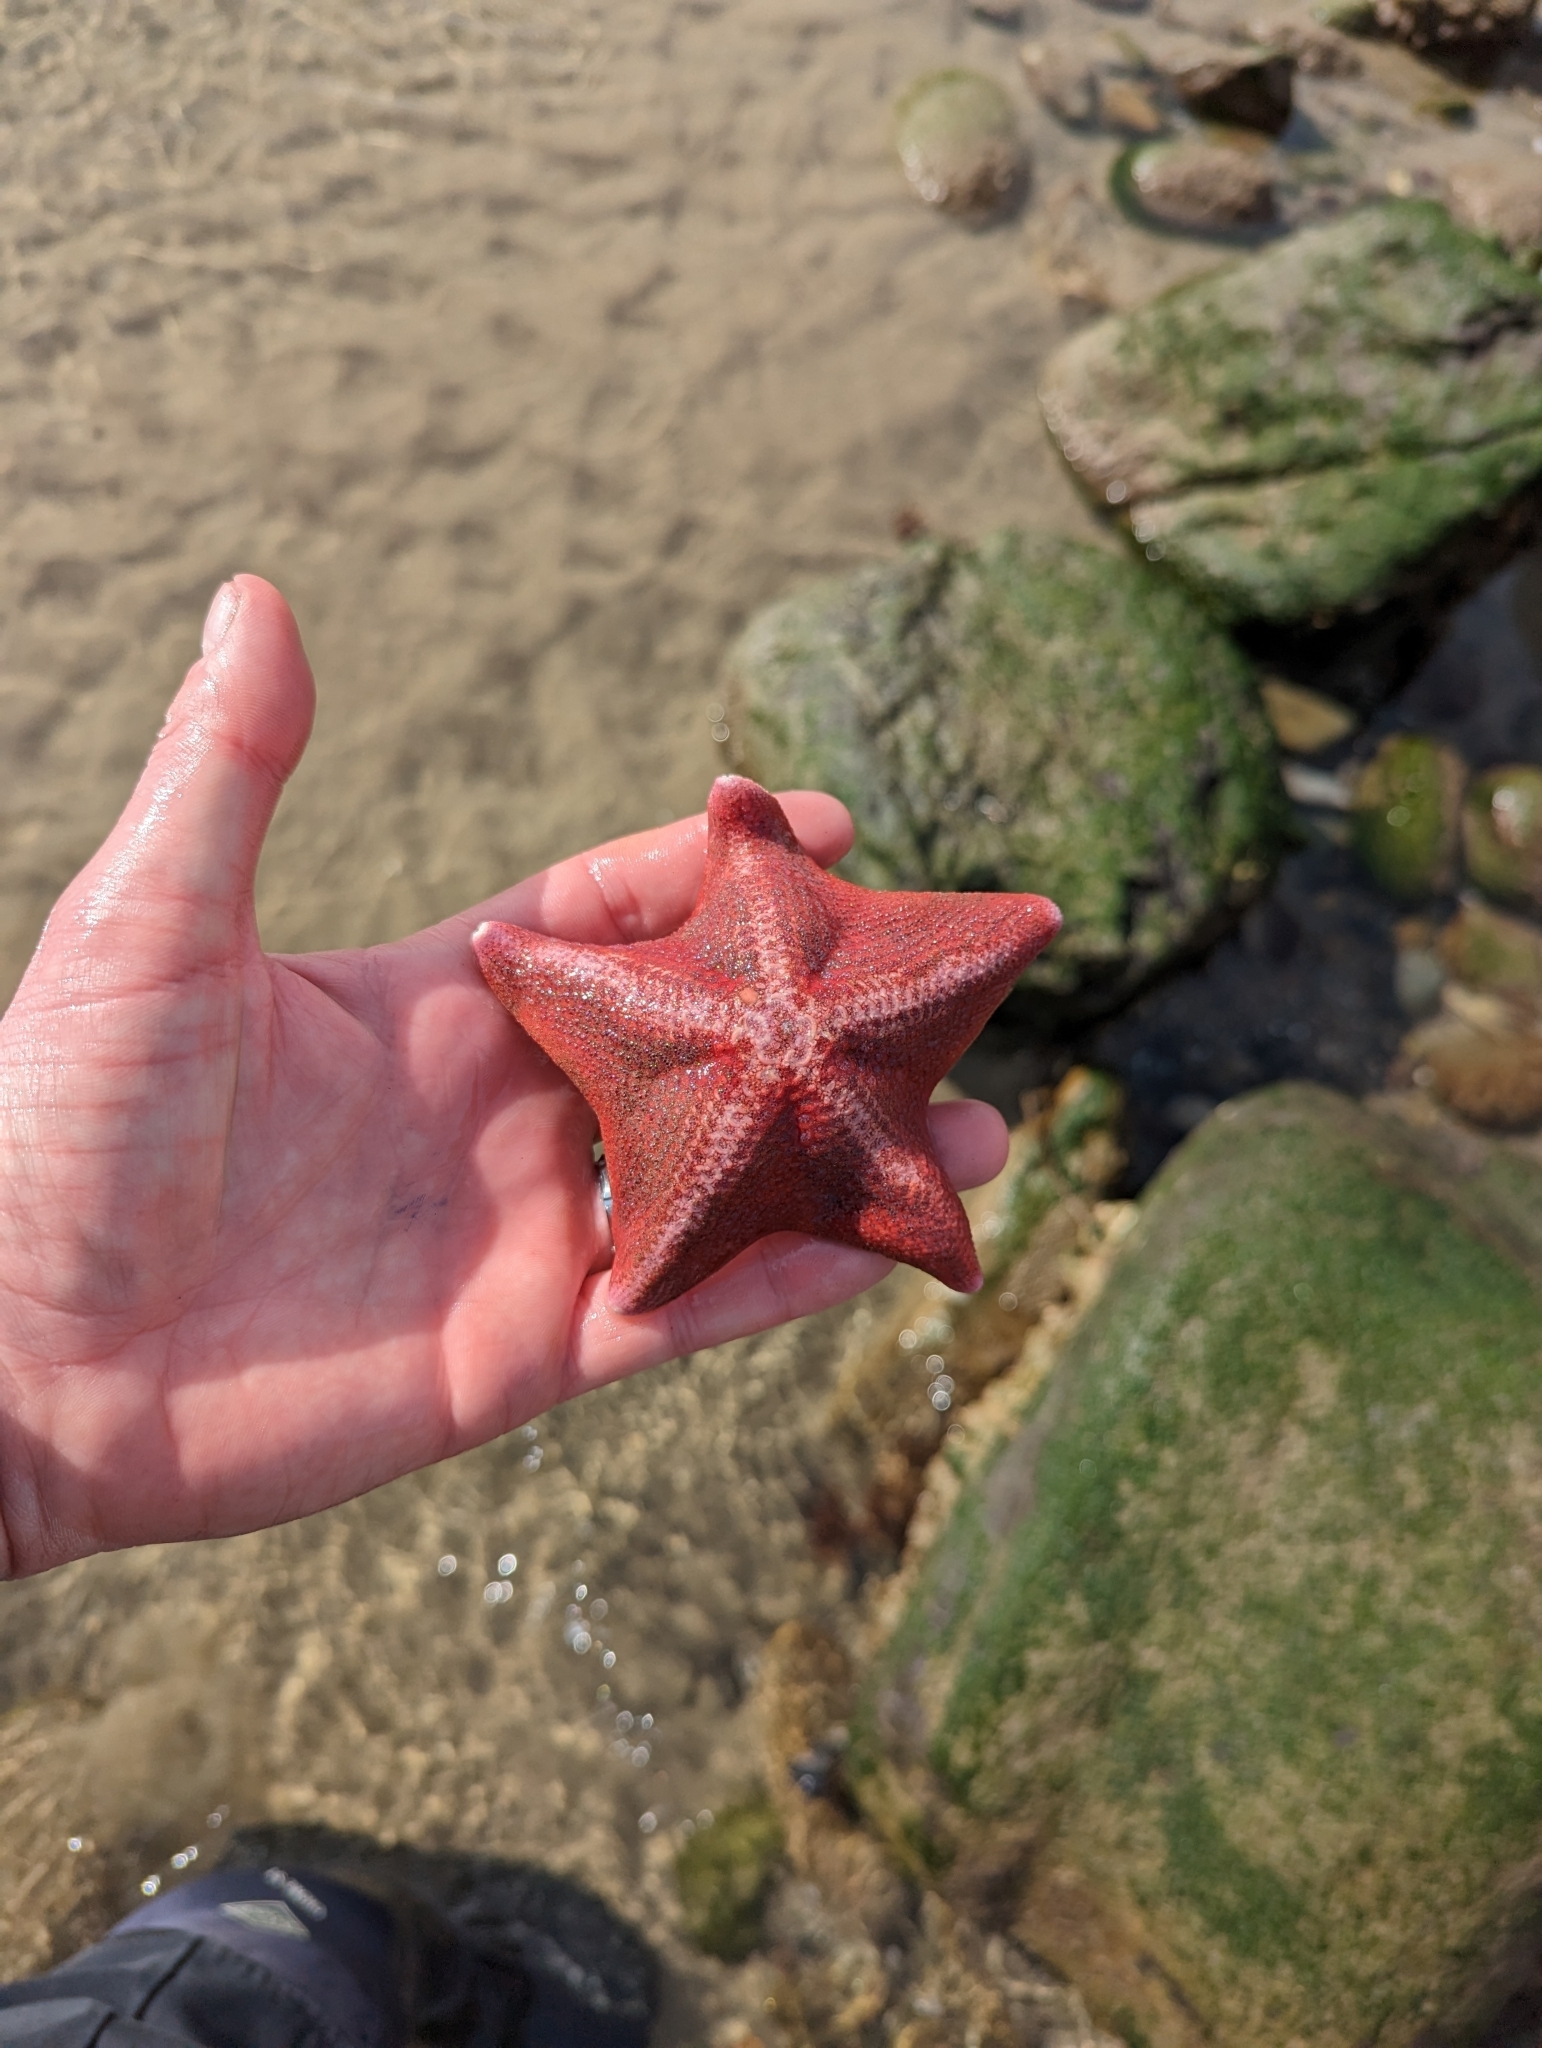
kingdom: Animalia
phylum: Echinodermata
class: Asteroidea
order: Valvatida
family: Asterinidae
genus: Patiria
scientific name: Patiria miniata
